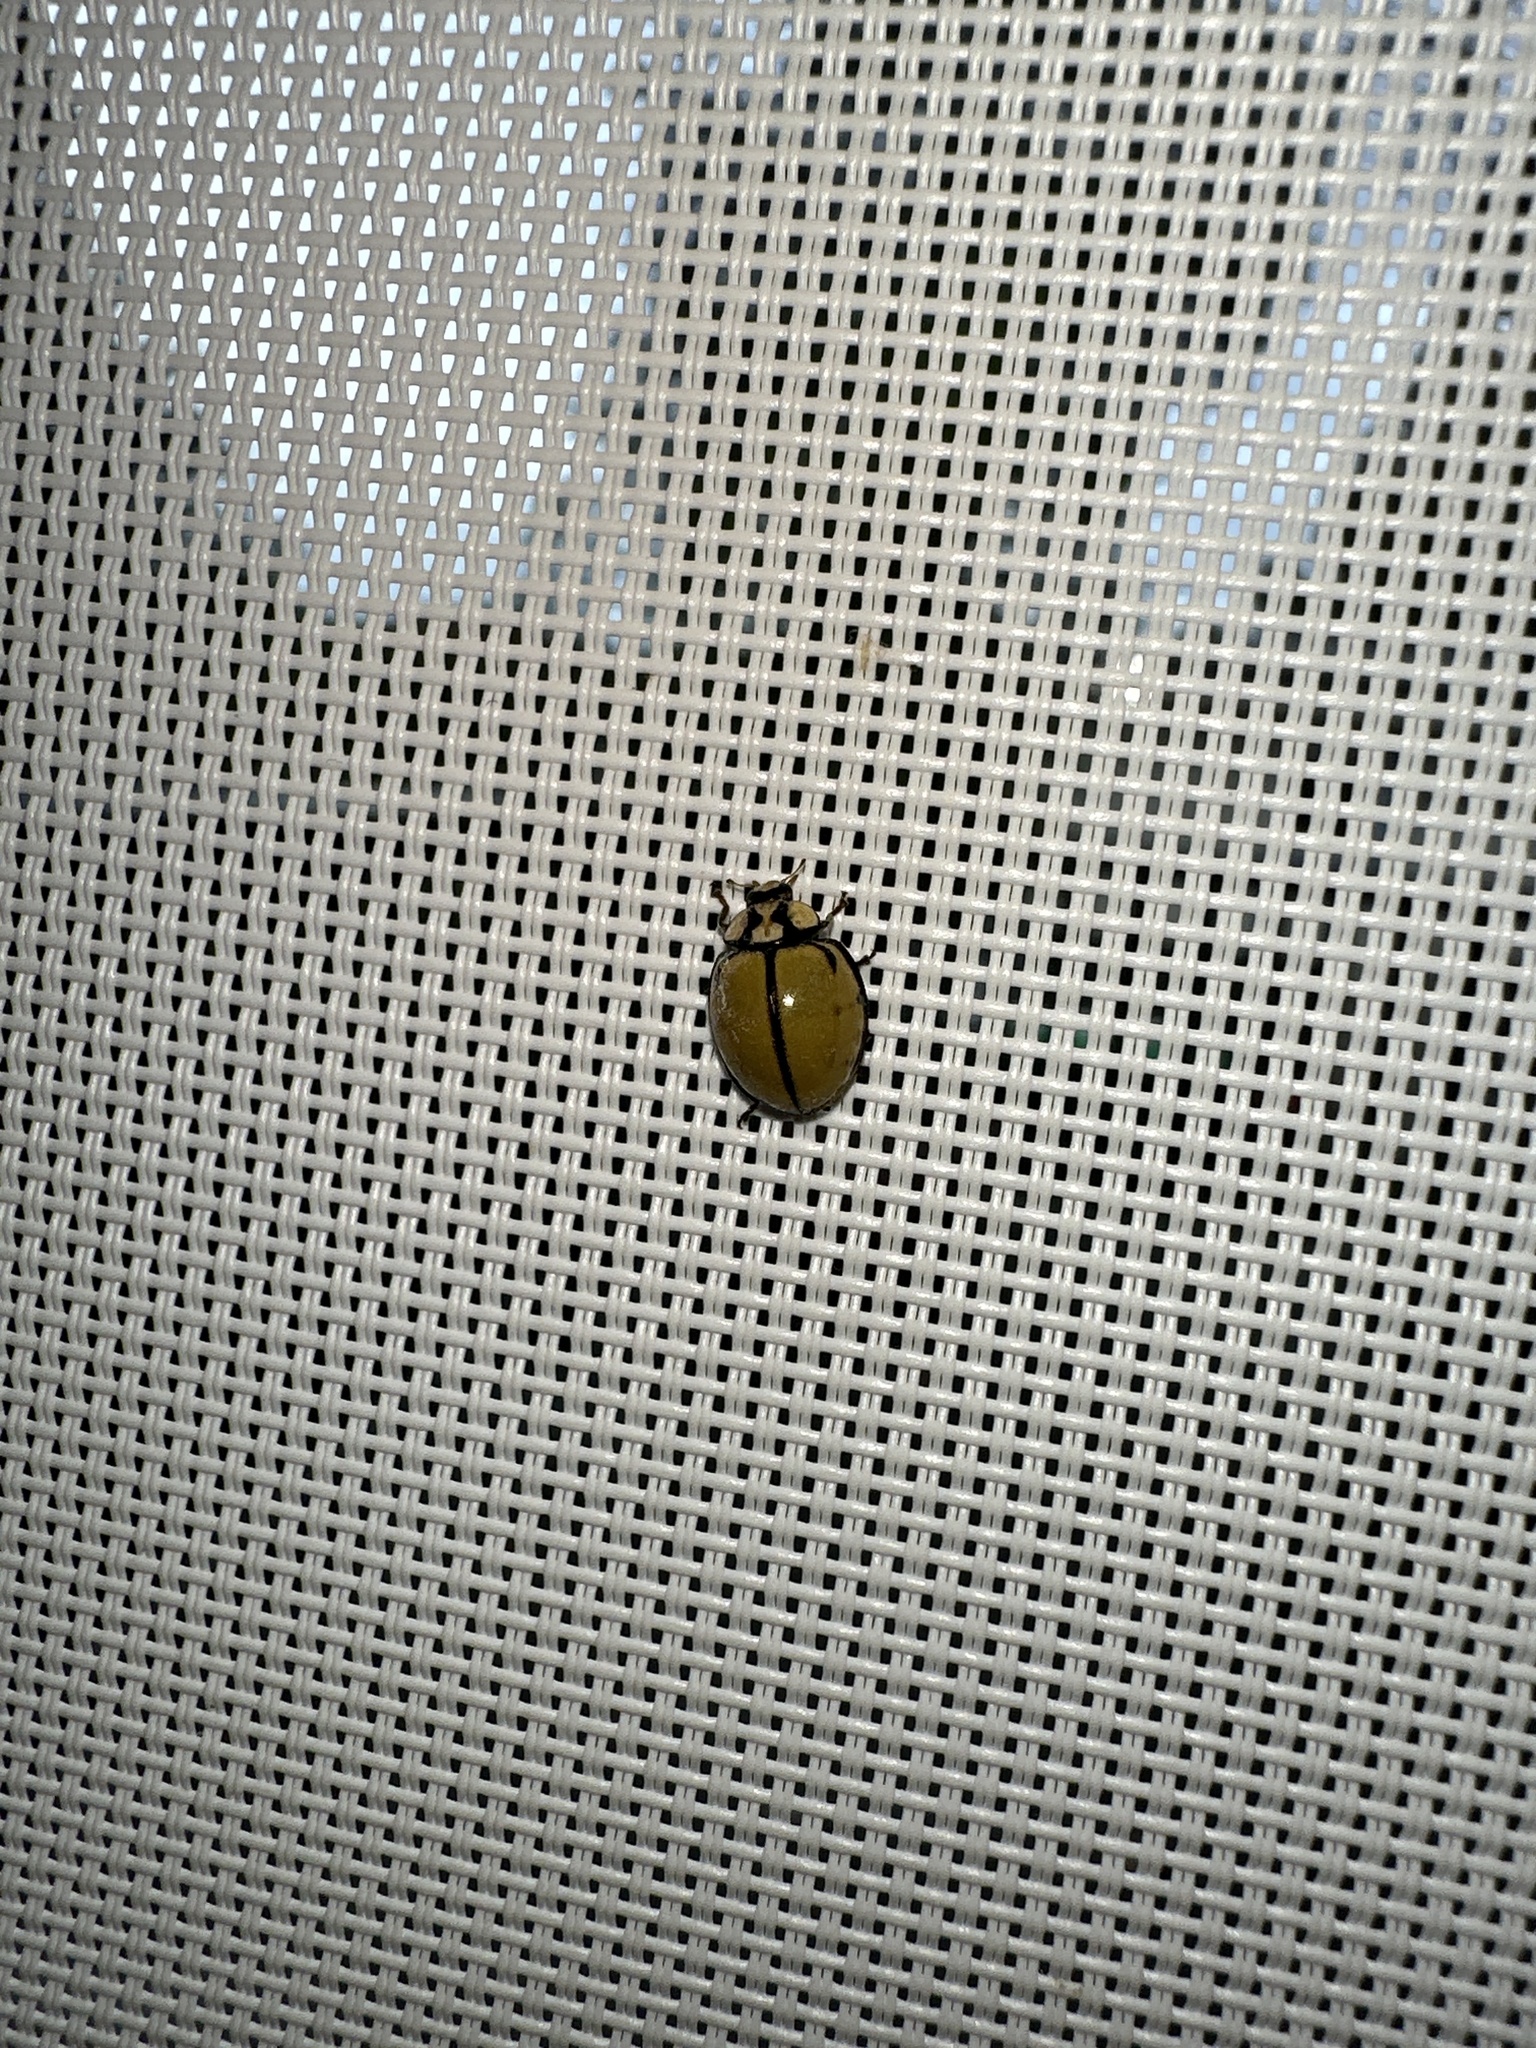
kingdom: Animalia
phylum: Arthropoda
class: Insecta
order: Coleoptera
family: Coccinellidae
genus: Harmonia
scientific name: Harmonia
